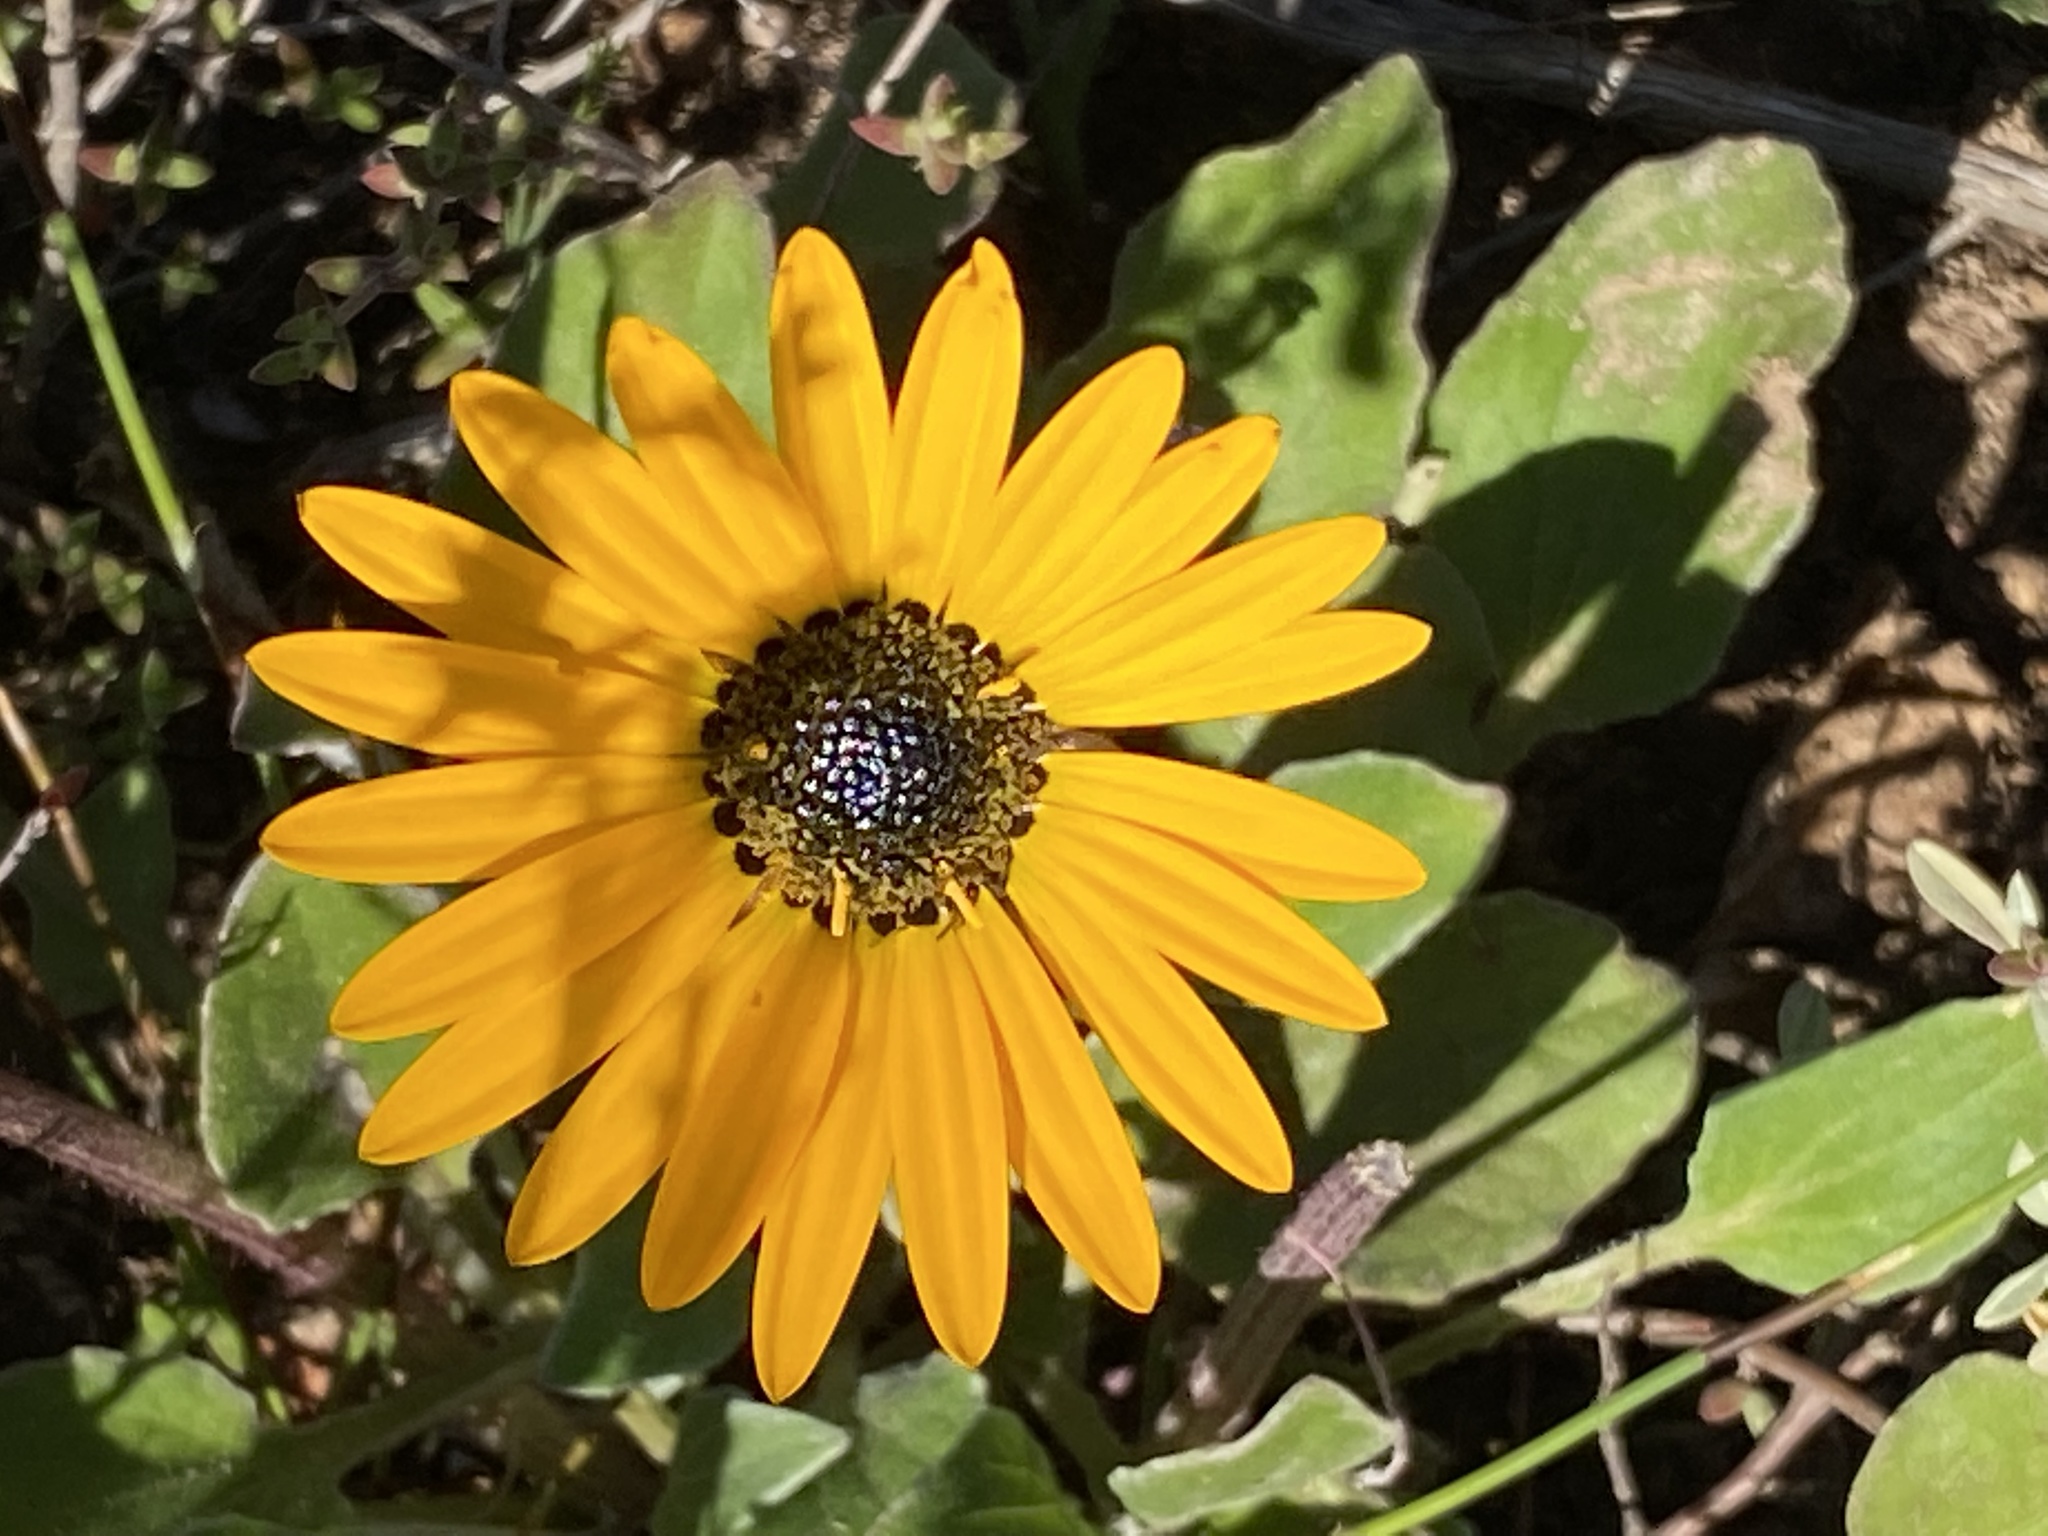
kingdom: Plantae
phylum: Tracheophyta
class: Magnoliopsida
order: Asterales
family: Asteraceae
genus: Arctotis
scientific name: Arctotis acaulis
